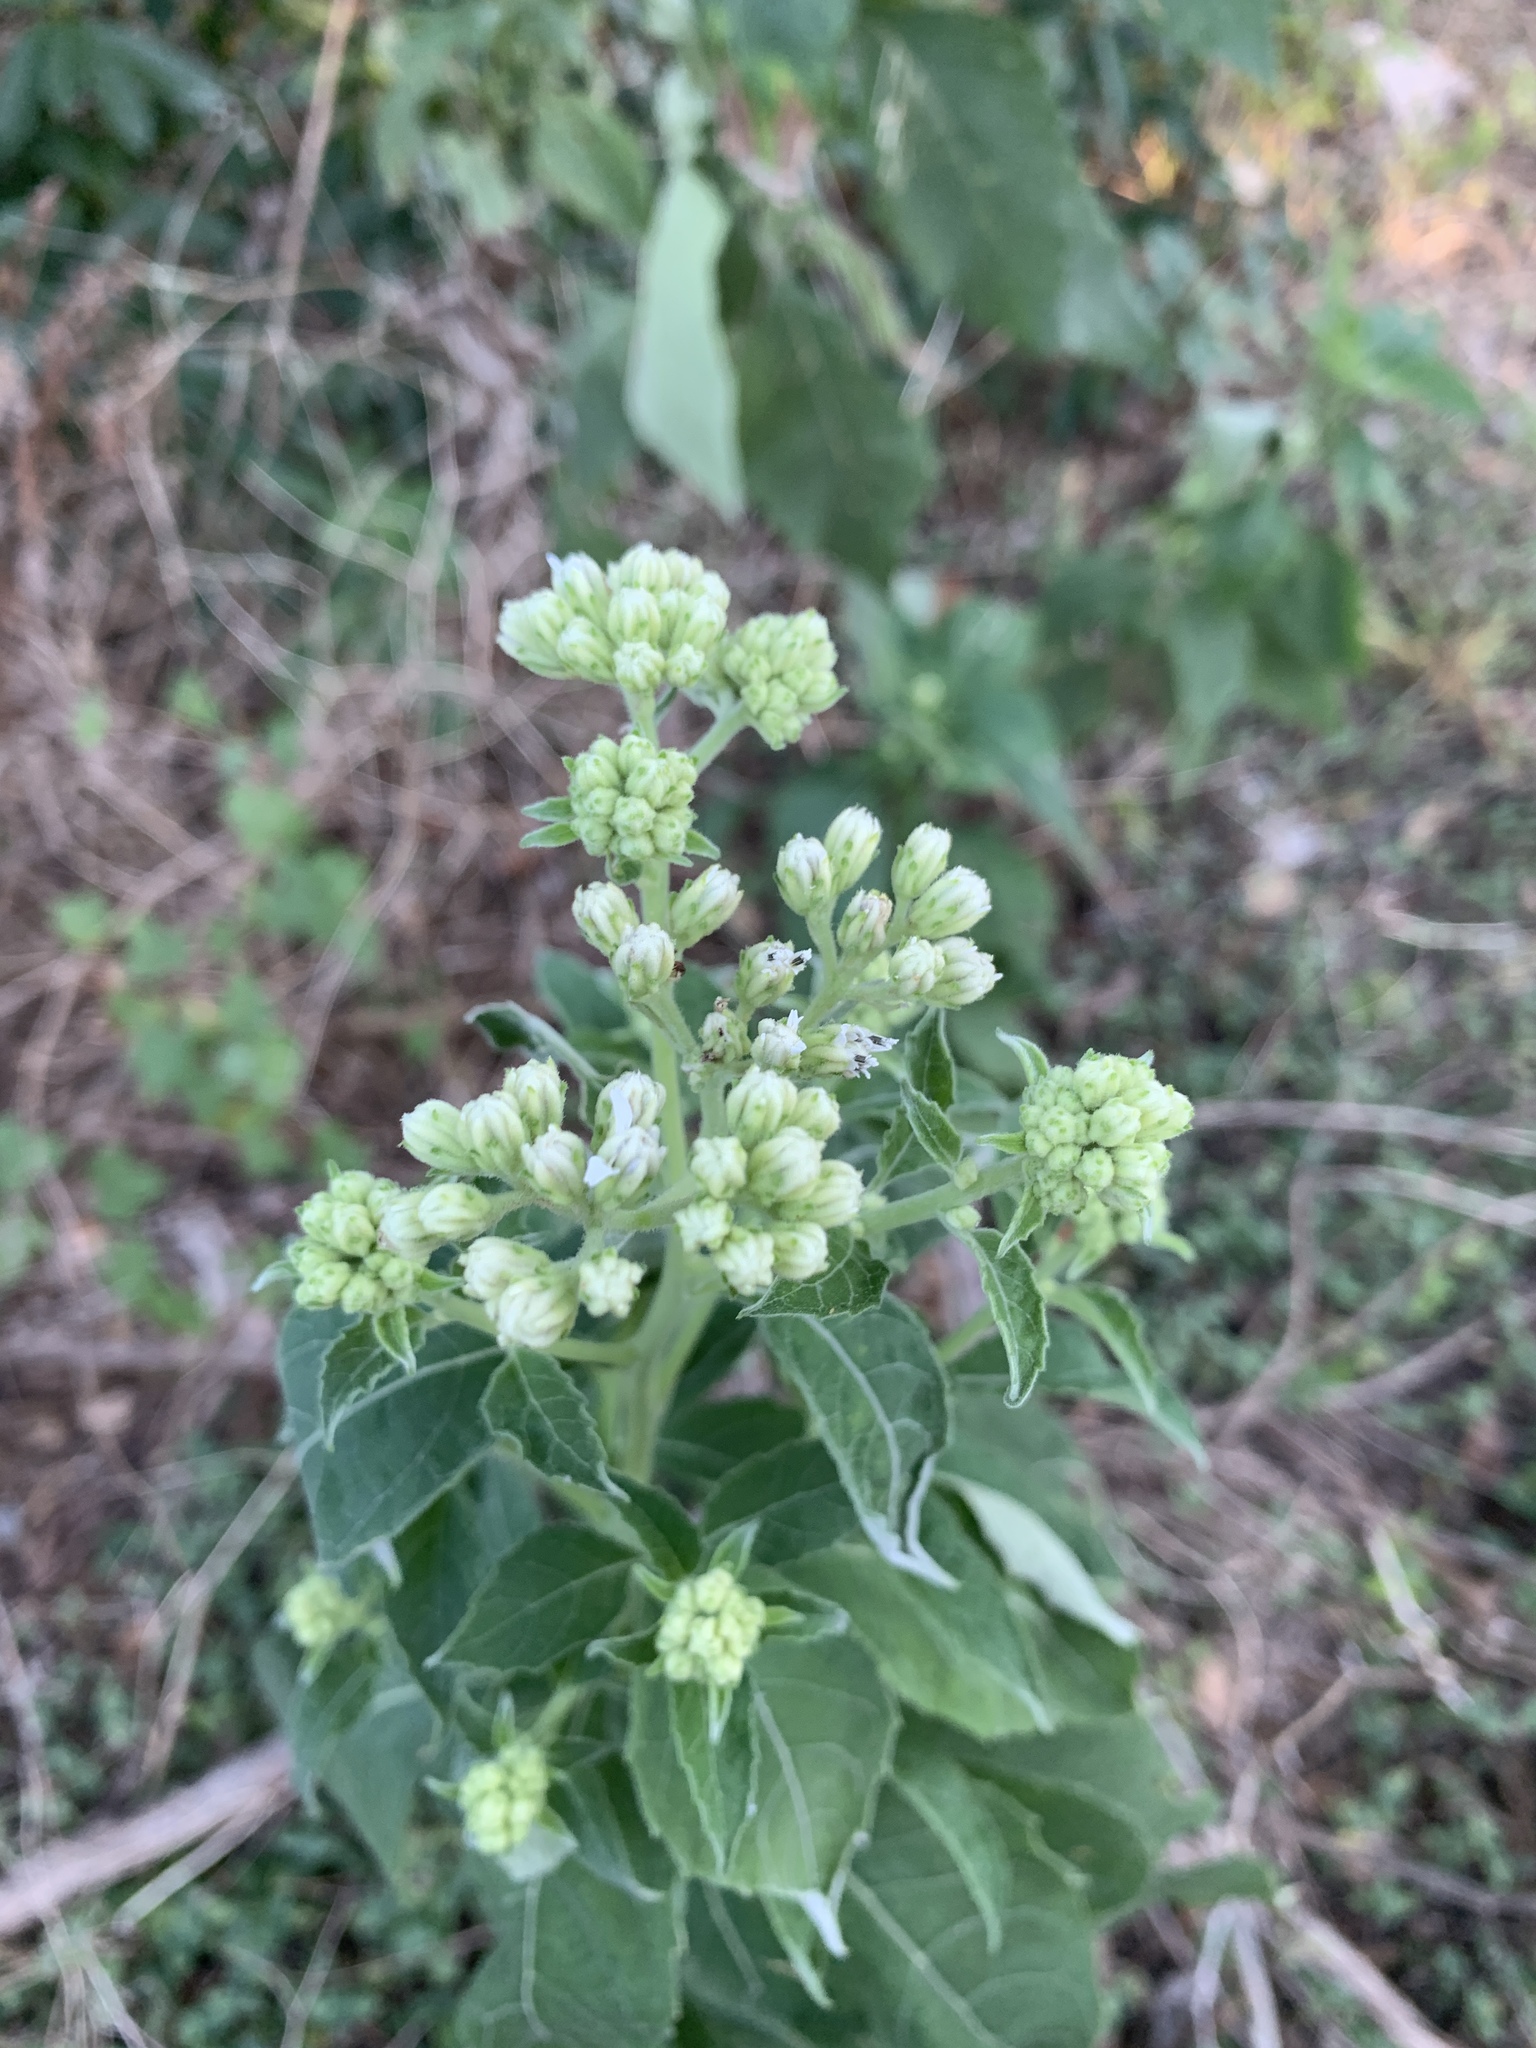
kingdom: Plantae
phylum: Tracheophyta
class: Magnoliopsida
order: Asterales
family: Asteraceae
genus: Verbesina
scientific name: Verbesina virginica
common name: Frostweed
